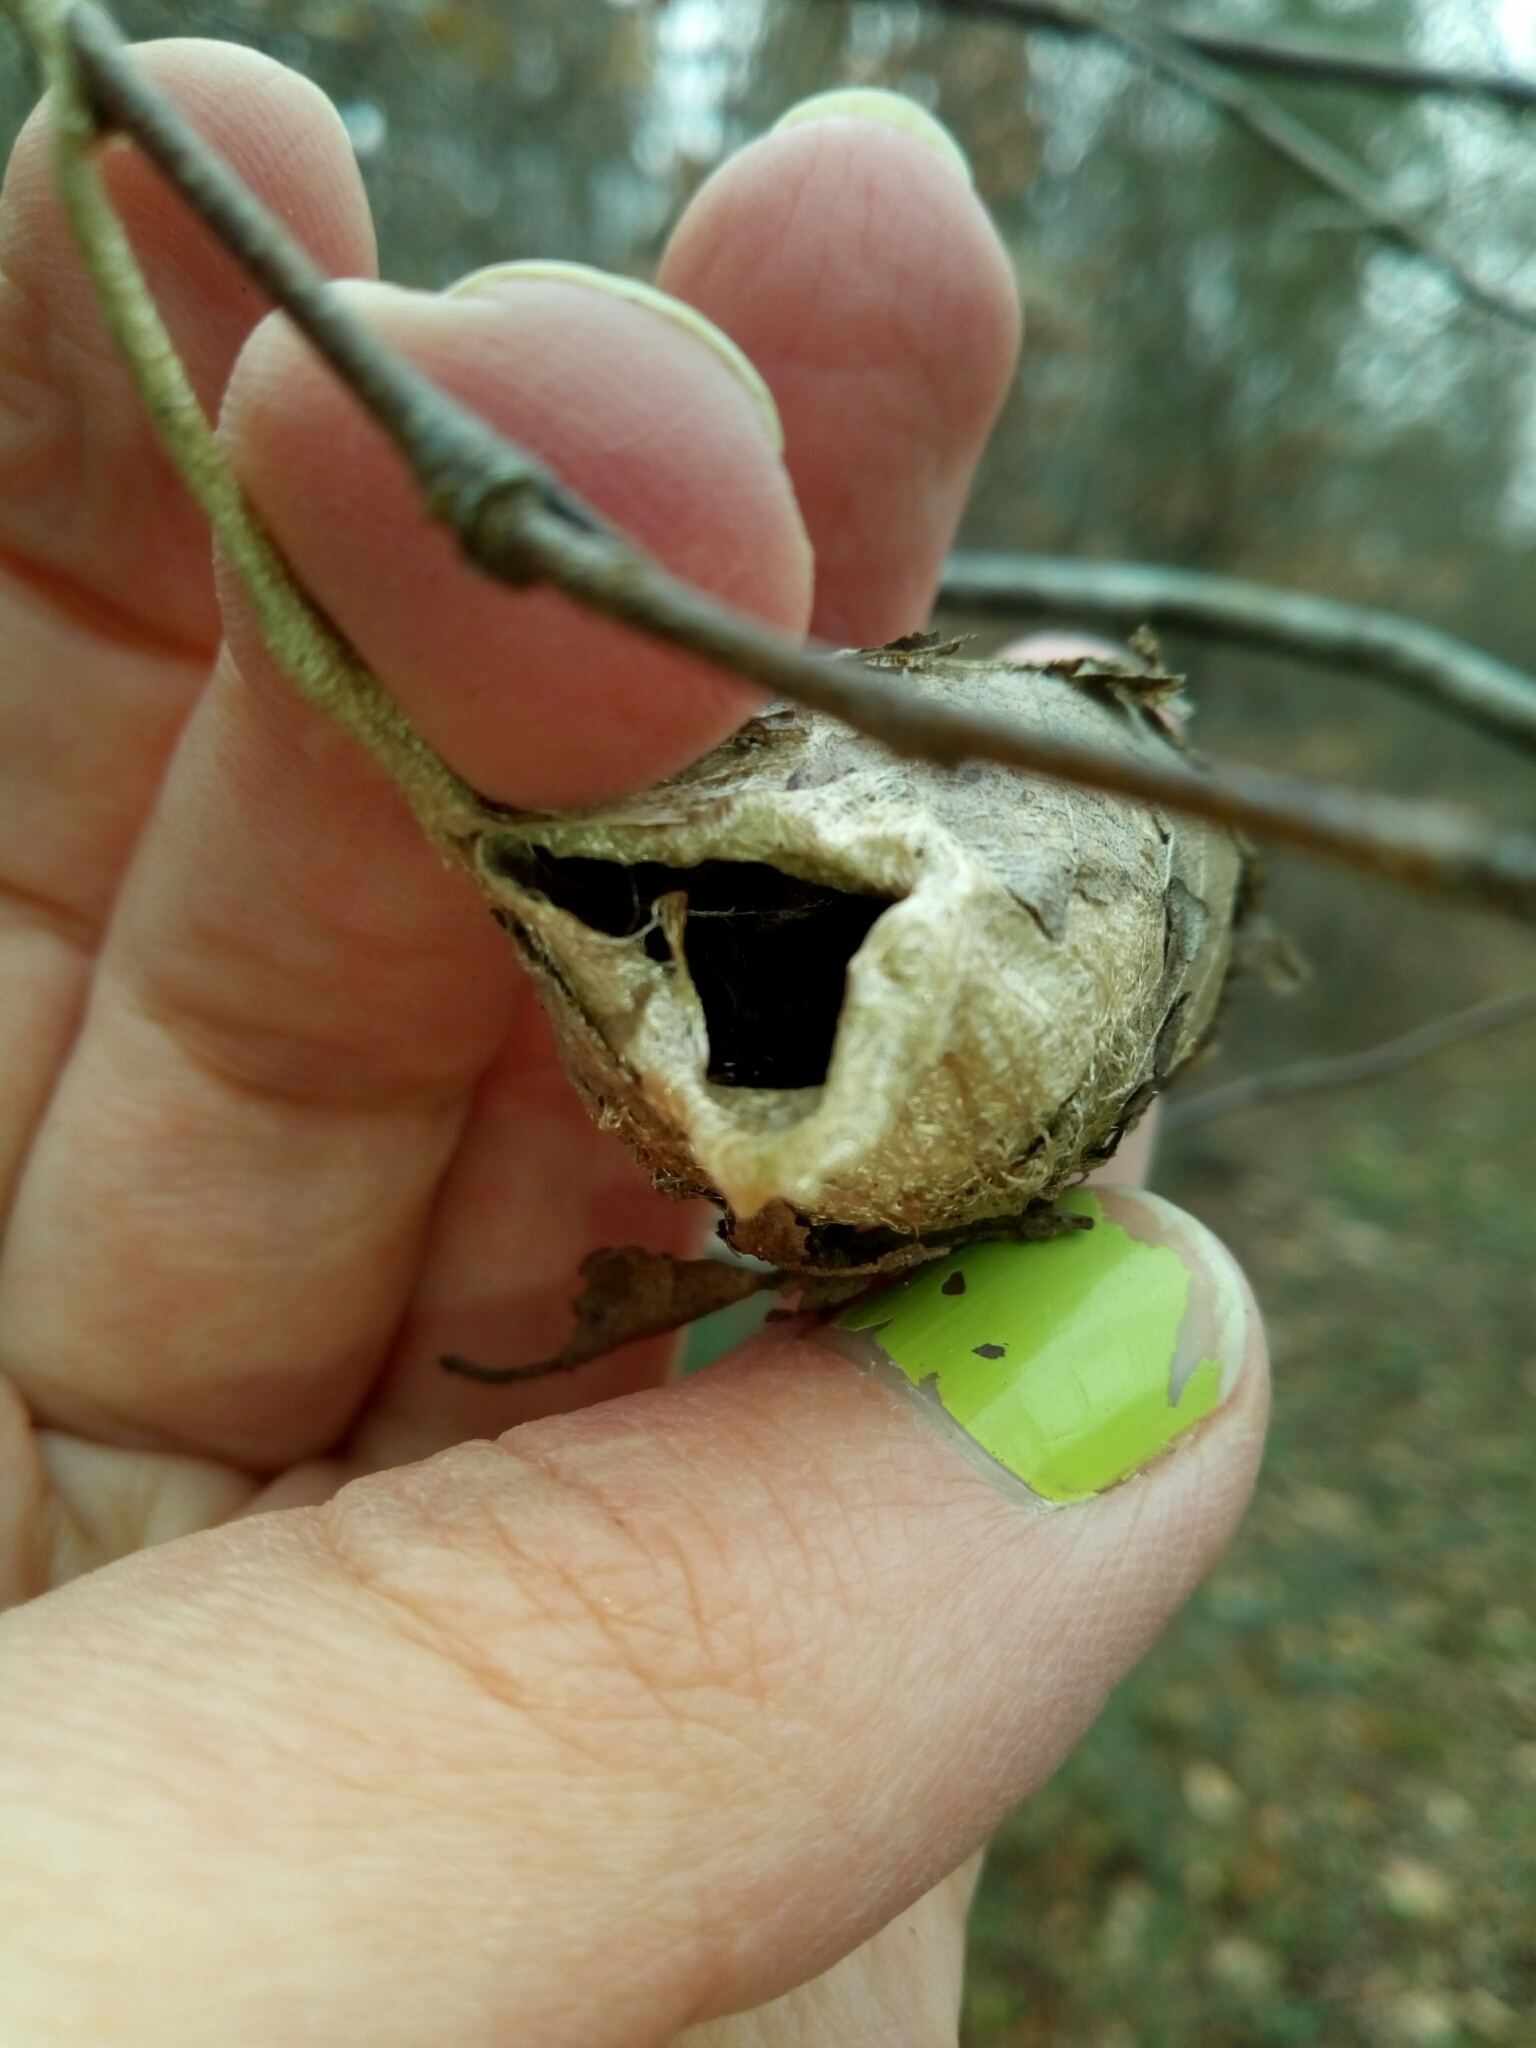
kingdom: Animalia
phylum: Arthropoda
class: Insecta
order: Lepidoptera
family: Saturniidae
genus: Antheraea
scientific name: Antheraea polyphemus
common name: Polyphemus moth
